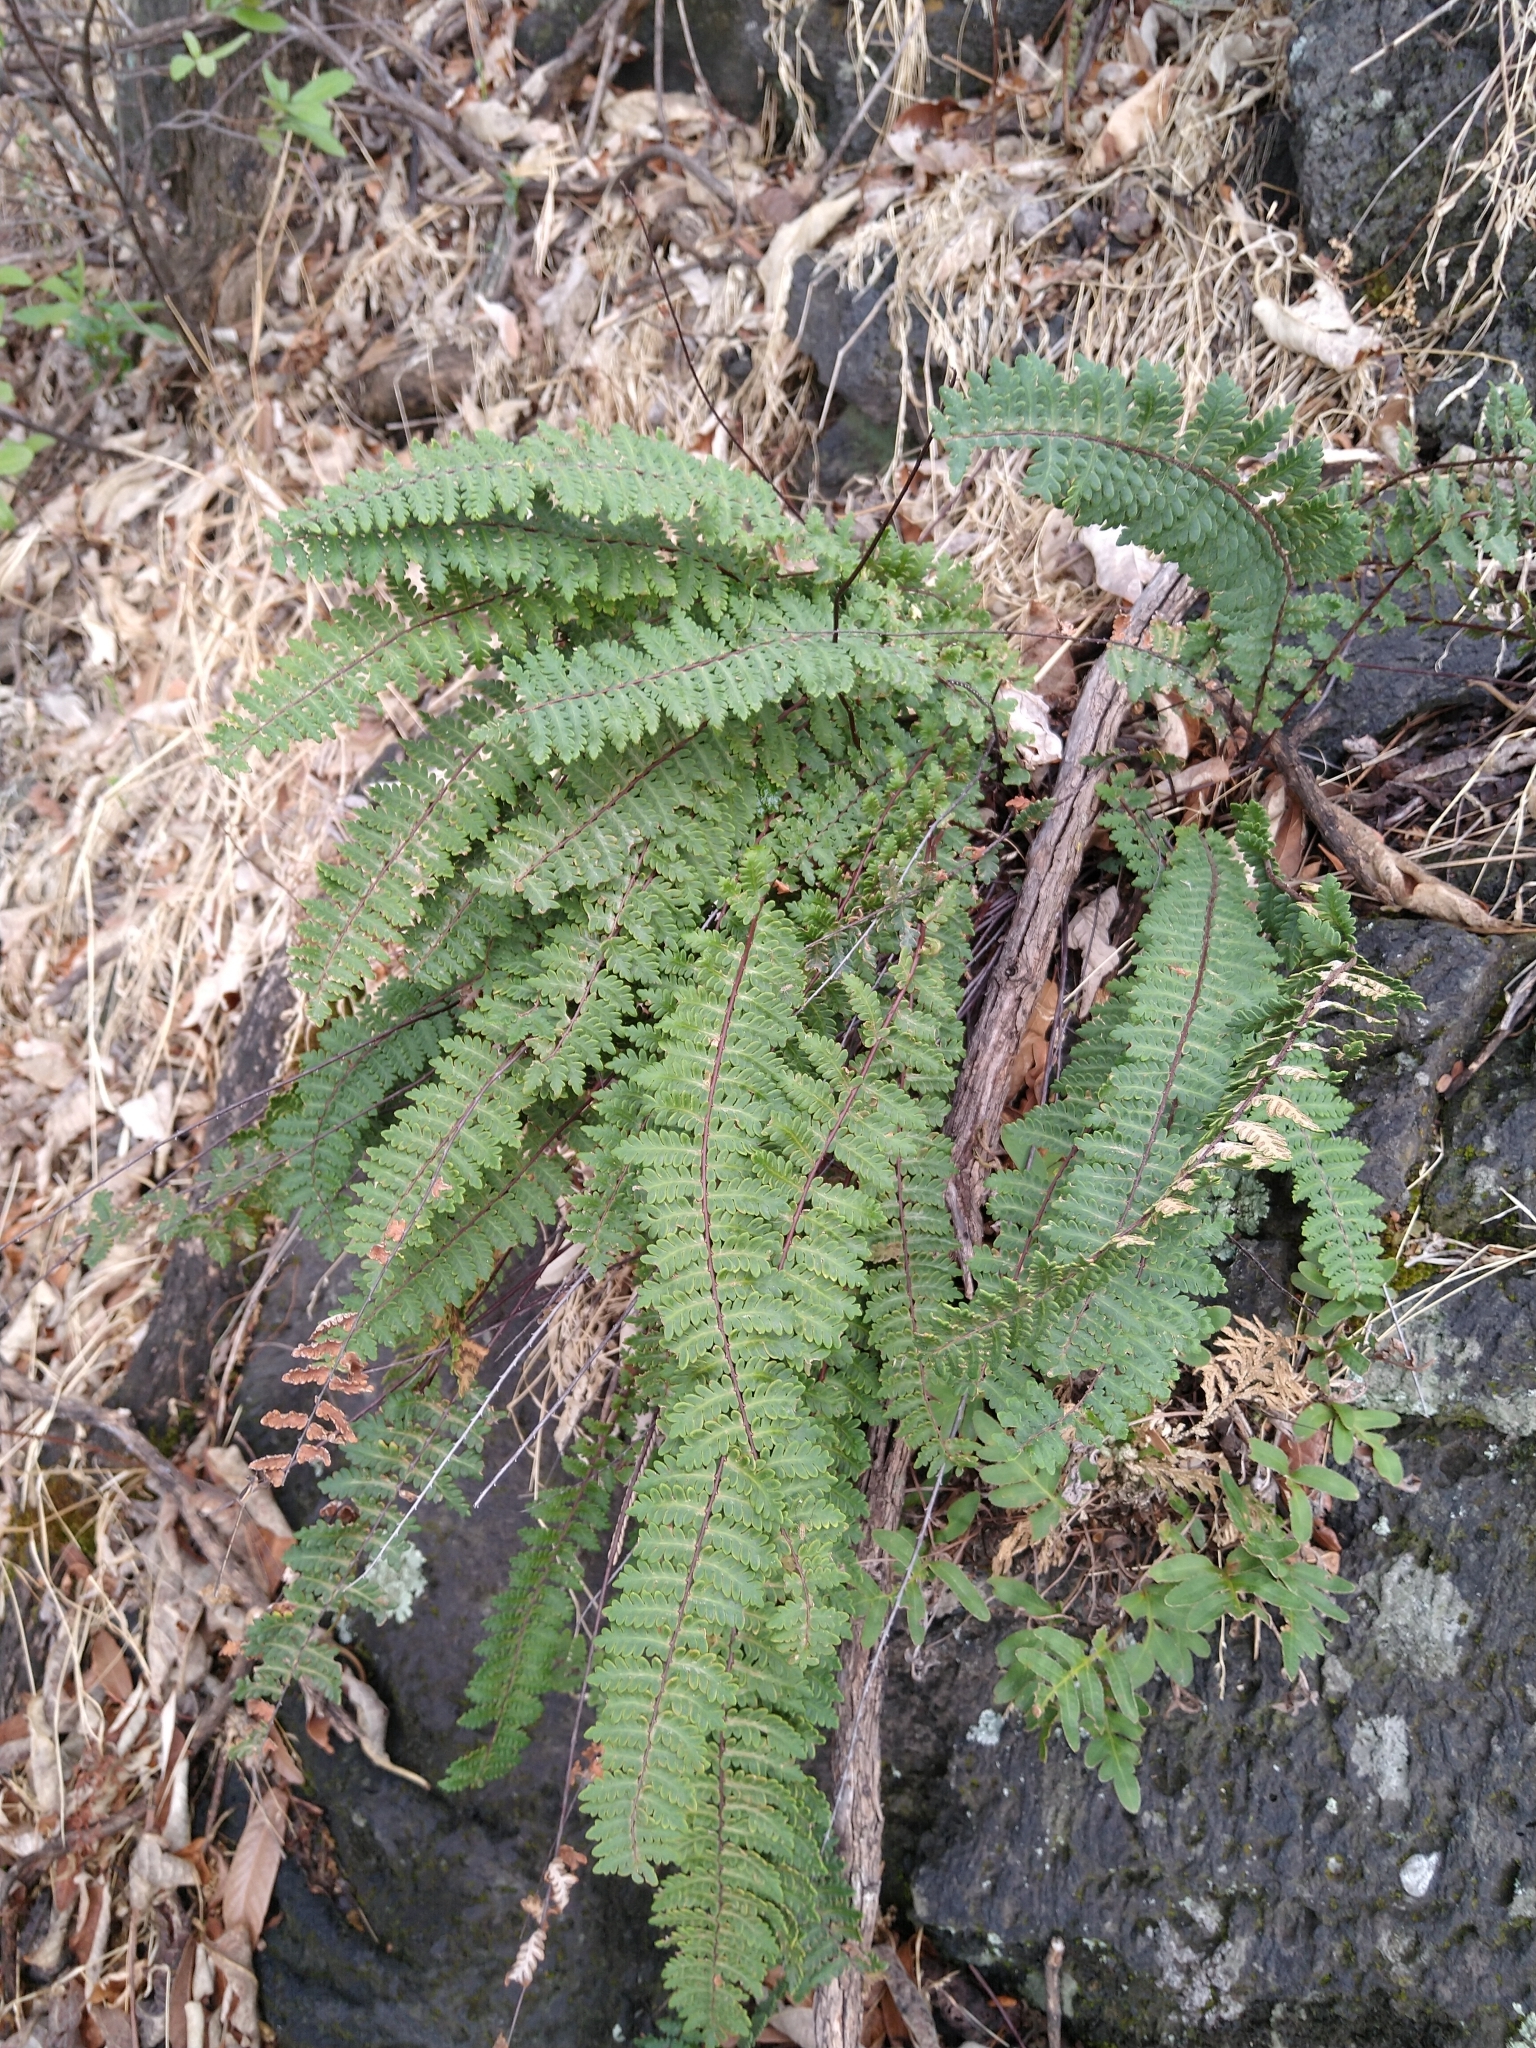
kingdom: Plantae
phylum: Tracheophyta
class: Polypodiopsida
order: Polypodiales
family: Pteridaceae
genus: Myriopteris
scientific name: Myriopteris aurea
